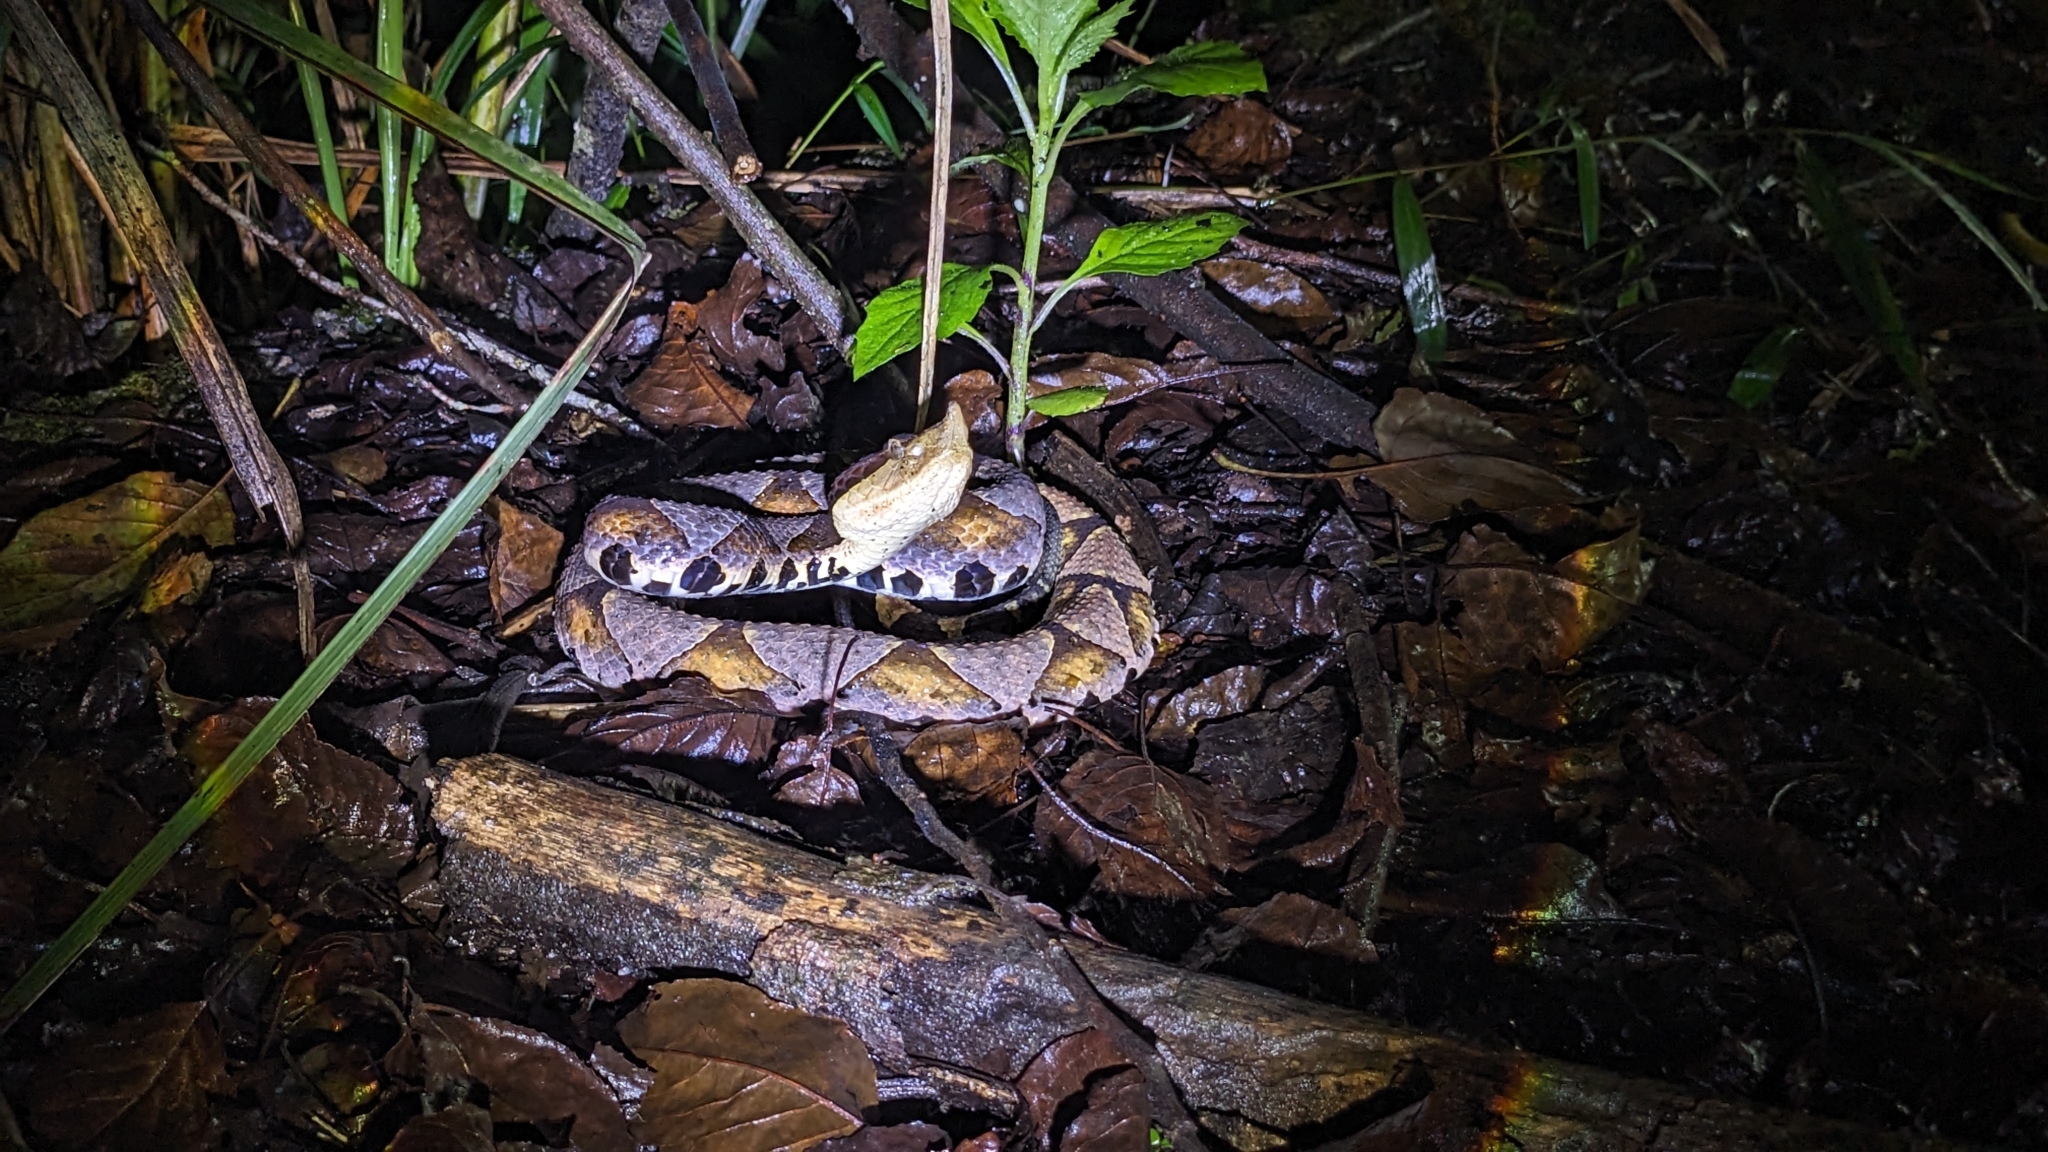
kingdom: Animalia
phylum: Chordata
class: Squamata
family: Viperidae
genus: Deinagkistrodon
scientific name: Deinagkistrodon acutus
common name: Chinese moccasin
